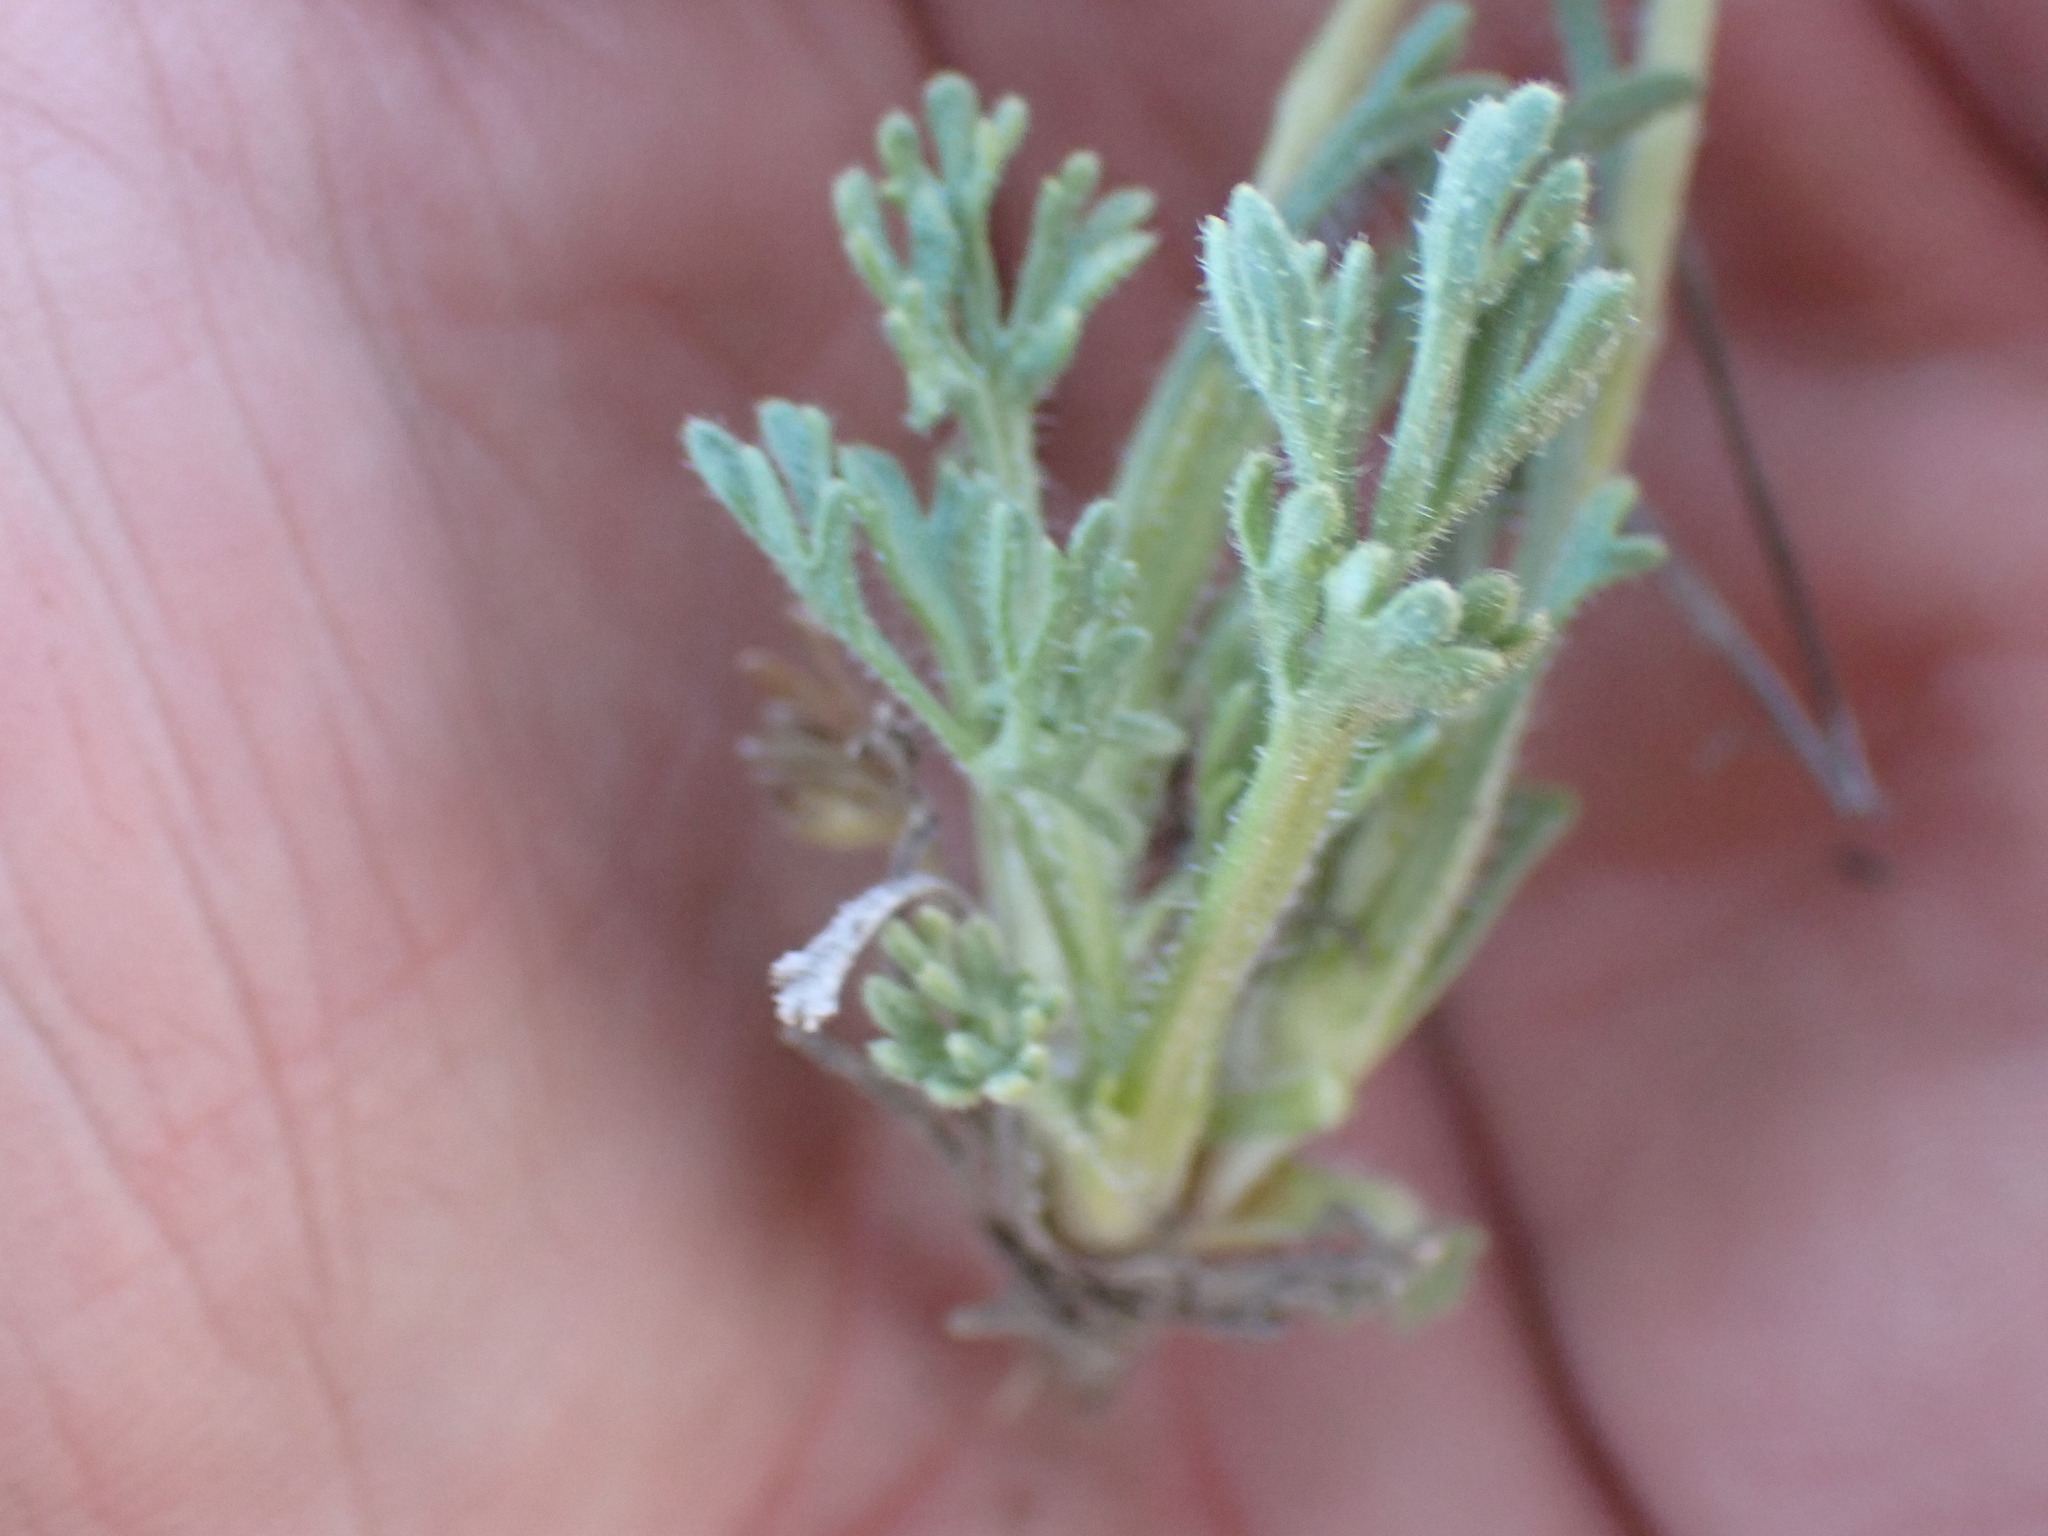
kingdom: Plantae
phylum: Tracheophyta
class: Magnoliopsida
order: Asterales
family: Asteraceae
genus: Erigeron
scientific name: Erigeron compositus
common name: Dwarf mountain fleabane
